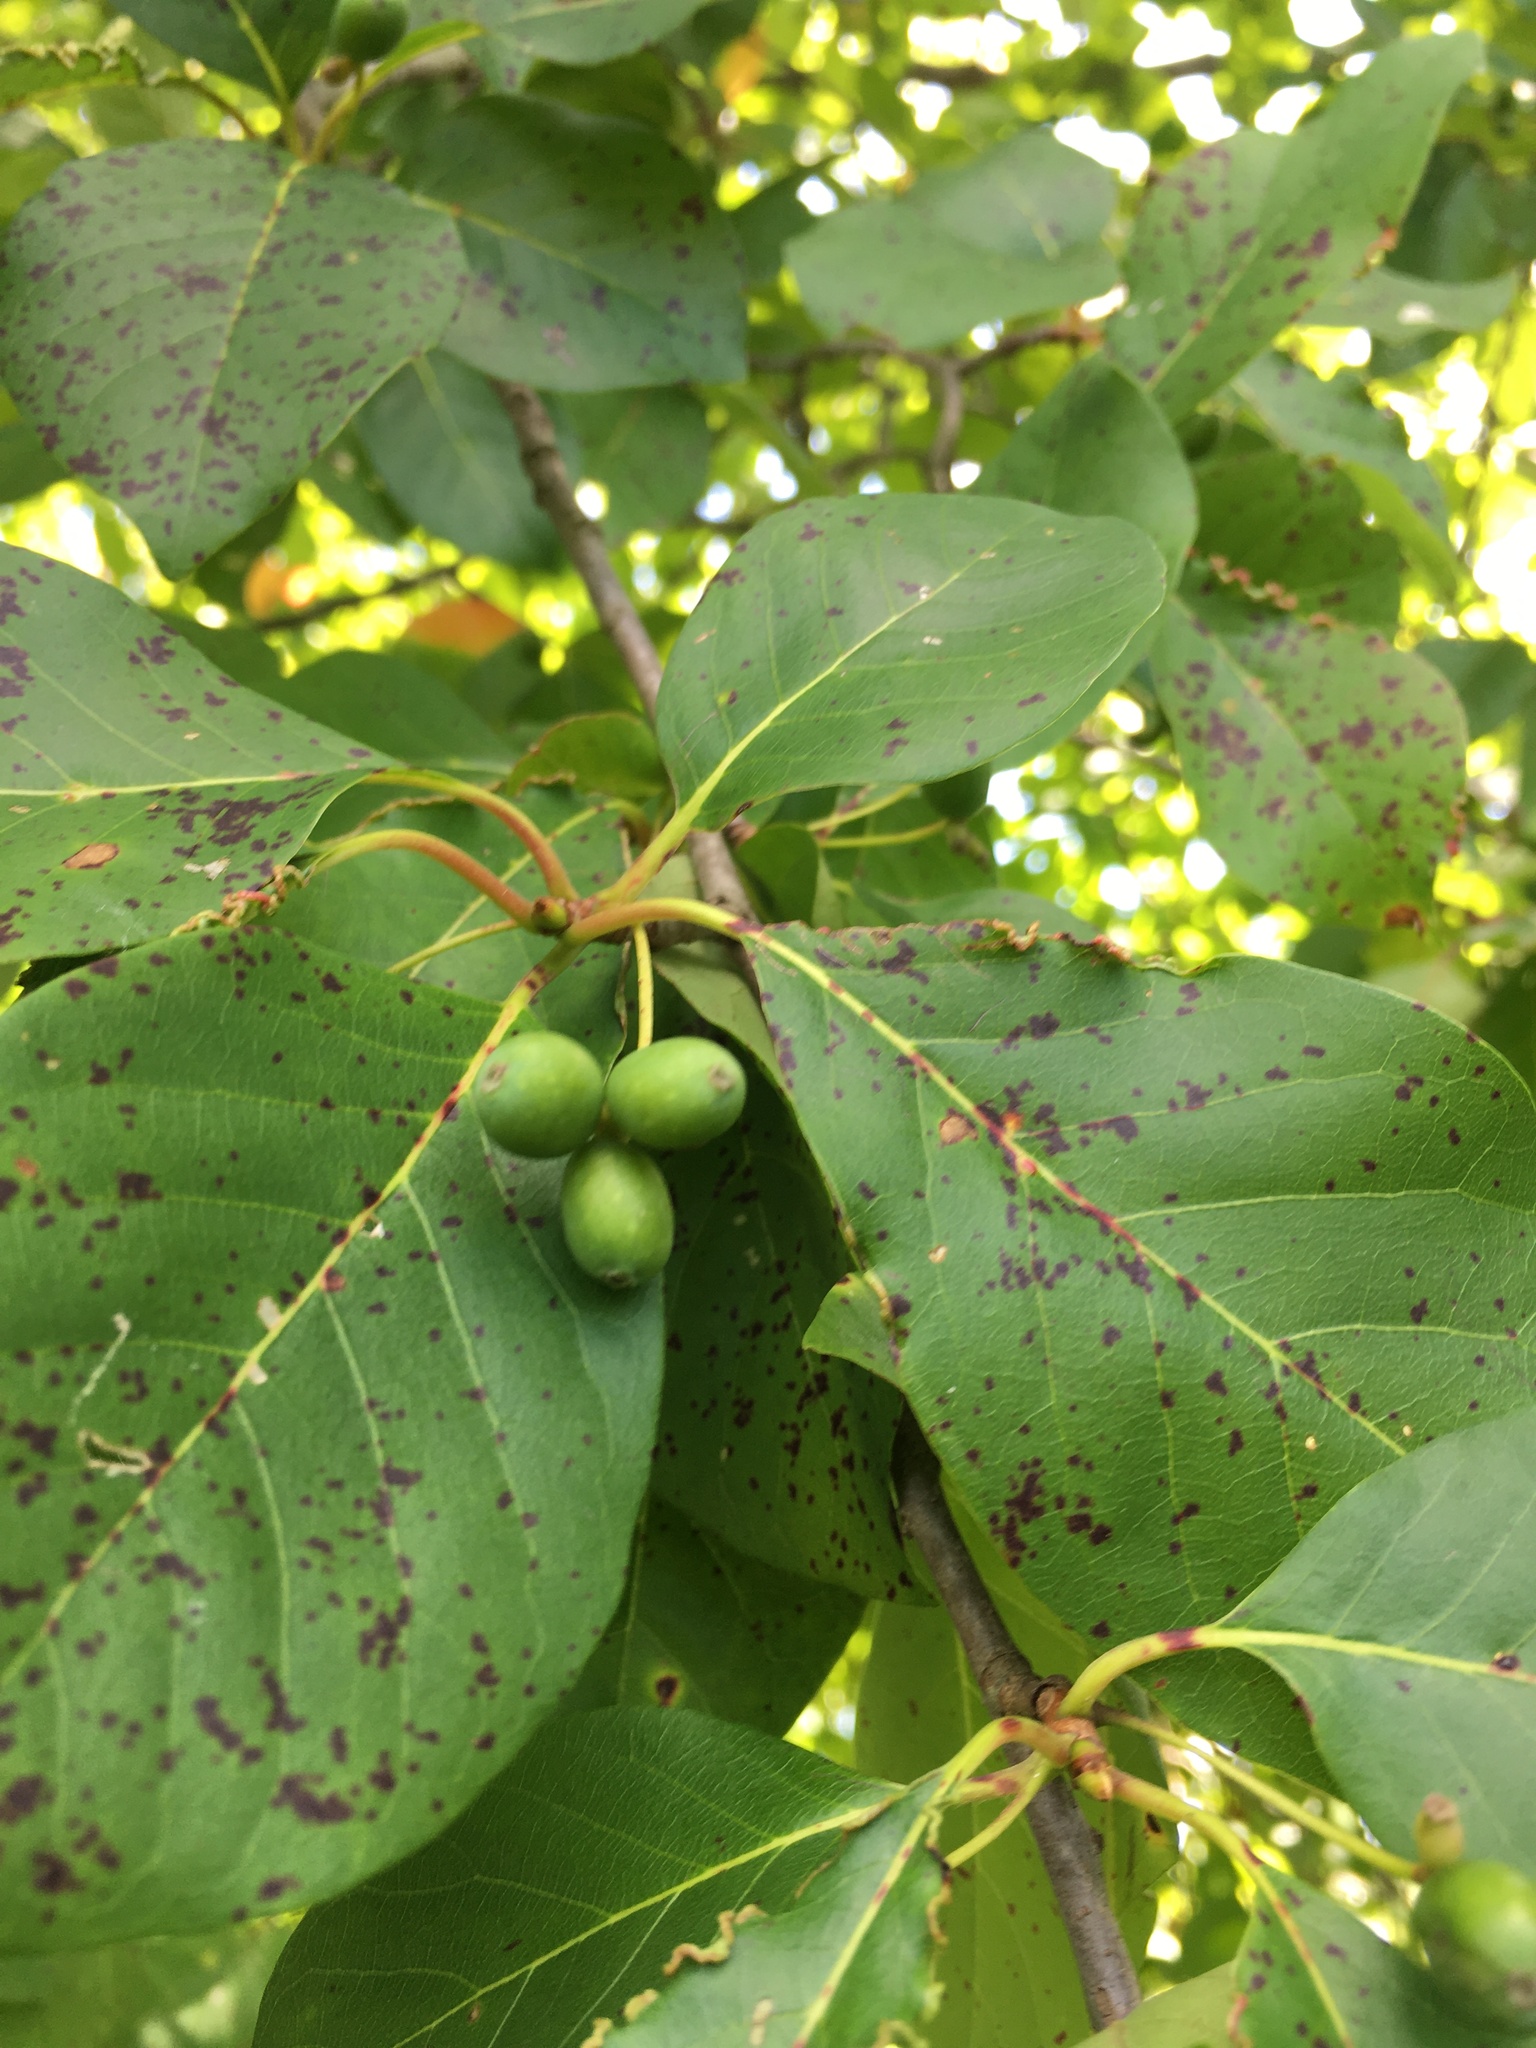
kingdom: Plantae
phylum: Tracheophyta
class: Magnoliopsida
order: Cornales
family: Nyssaceae
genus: Nyssa
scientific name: Nyssa sylvatica
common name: Black tupelo
